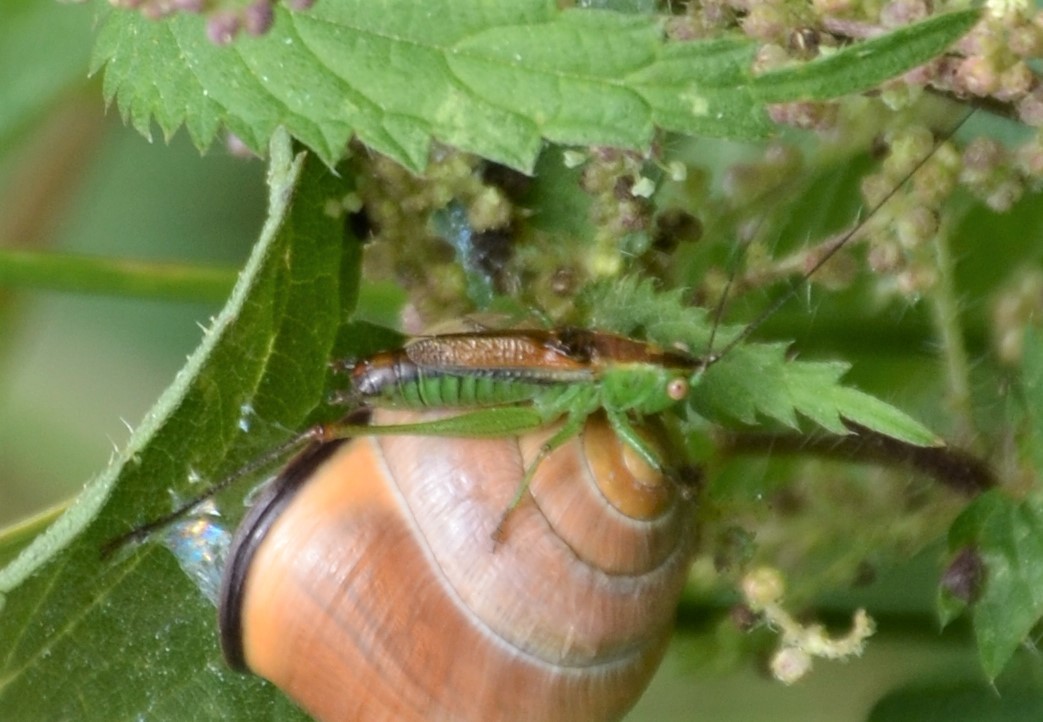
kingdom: Animalia
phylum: Arthropoda
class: Insecta
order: Orthoptera
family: Tettigoniidae
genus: Conocephalus
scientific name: Conocephalus dorsalis
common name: Short-winged conehead
